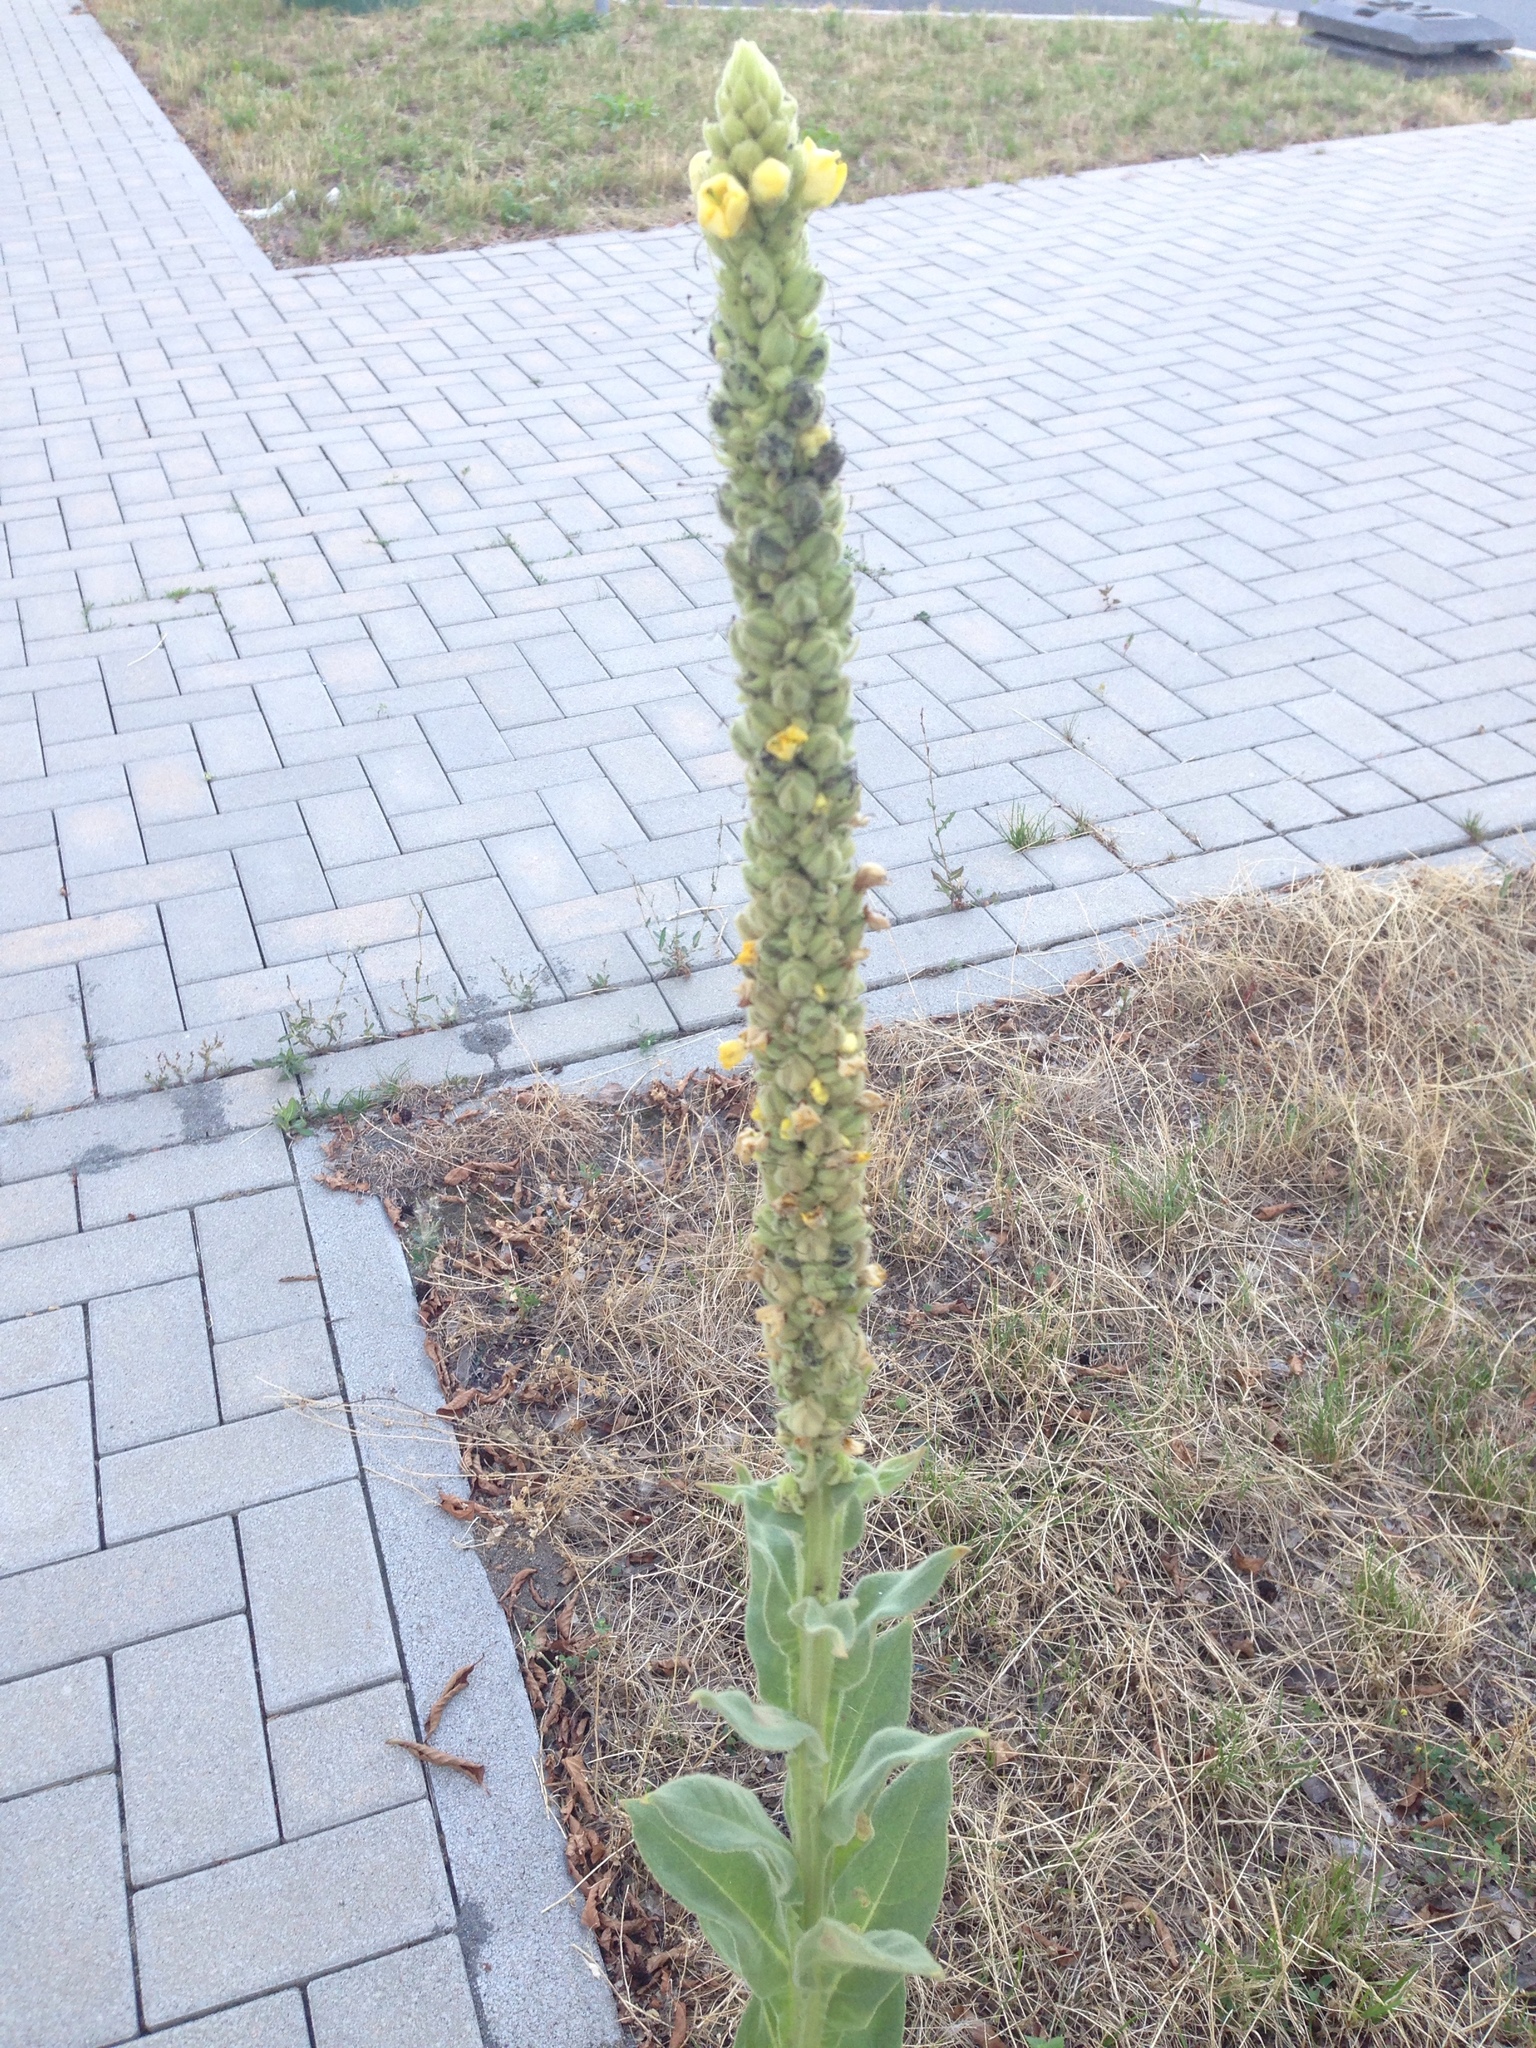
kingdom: Plantae
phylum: Tracheophyta
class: Magnoliopsida
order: Lamiales
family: Scrophulariaceae
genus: Verbascum
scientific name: Verbascum thapsus
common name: Common mullein
